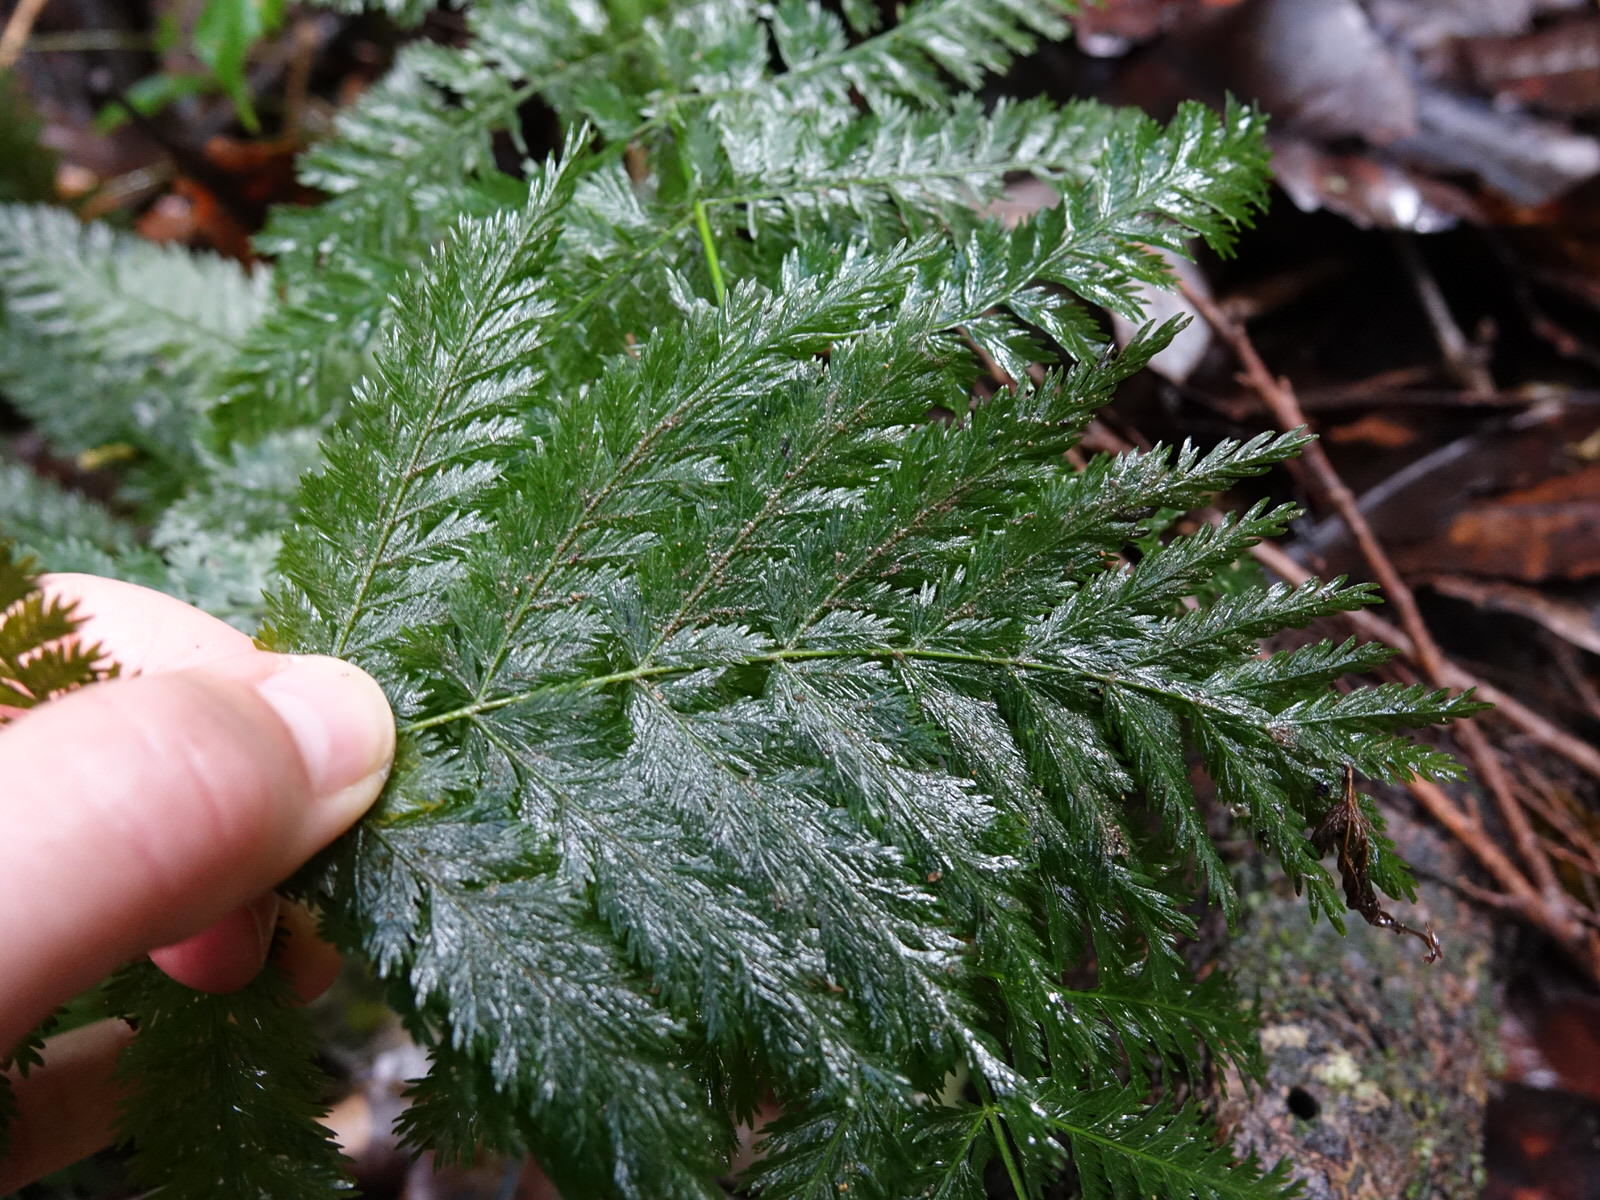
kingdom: Plantae
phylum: Tracheophyta
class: Polypodiopsida
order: Osmundales
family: Osmundaceae
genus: Leptopteris
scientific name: Leptopteris hymenophylloides
